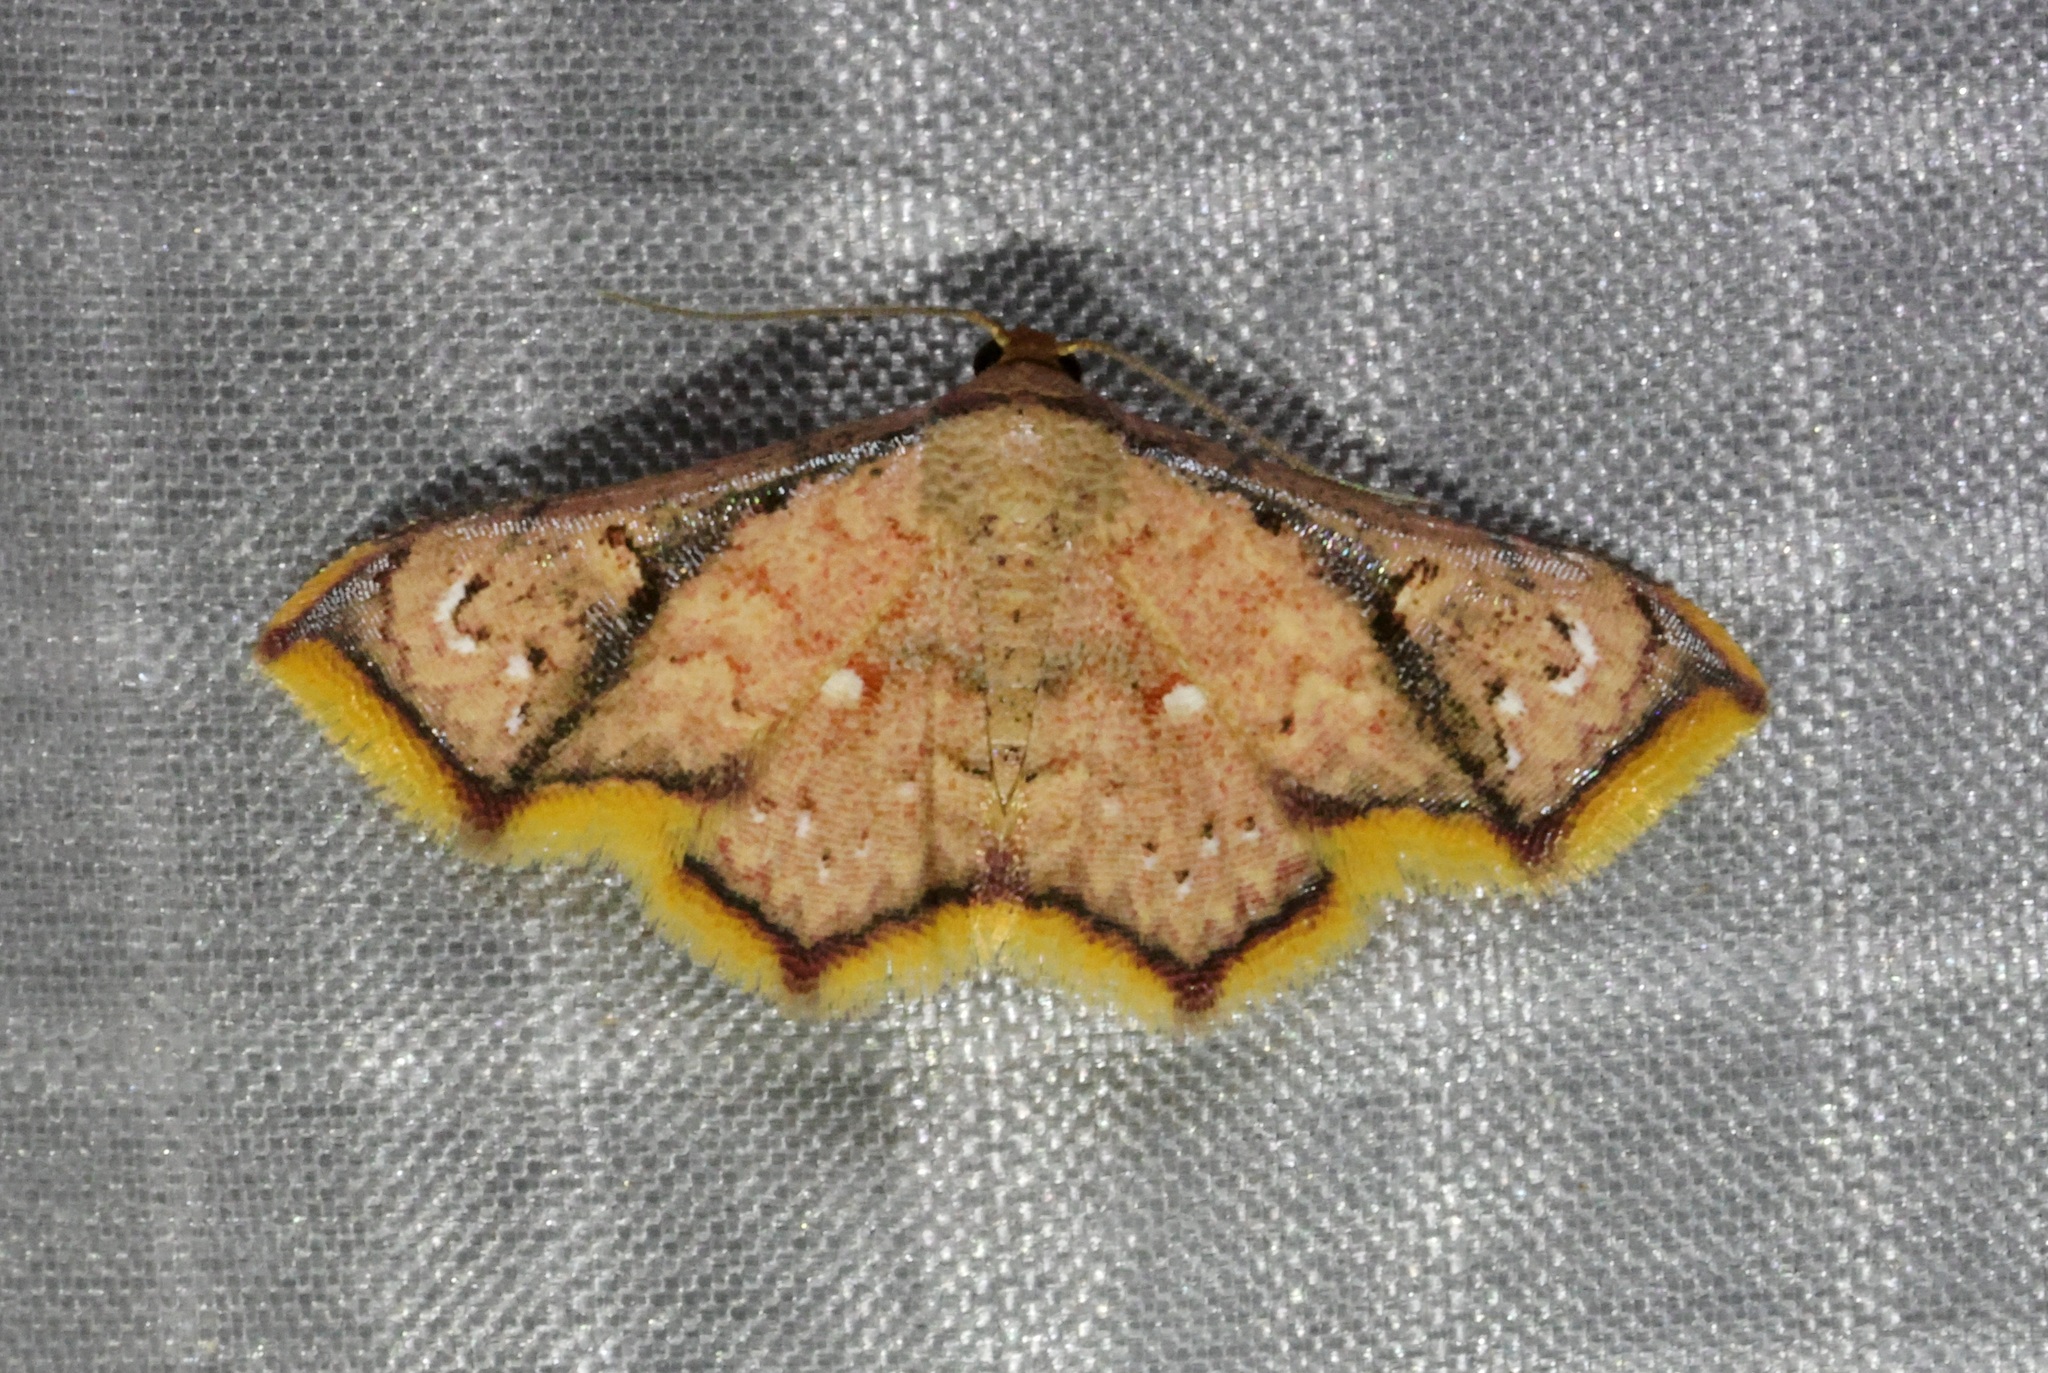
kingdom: Animalia
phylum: Arthropoda
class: Insecta
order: Lepidoptera
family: Noctuidae
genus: Enispa
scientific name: Enispa elataria
